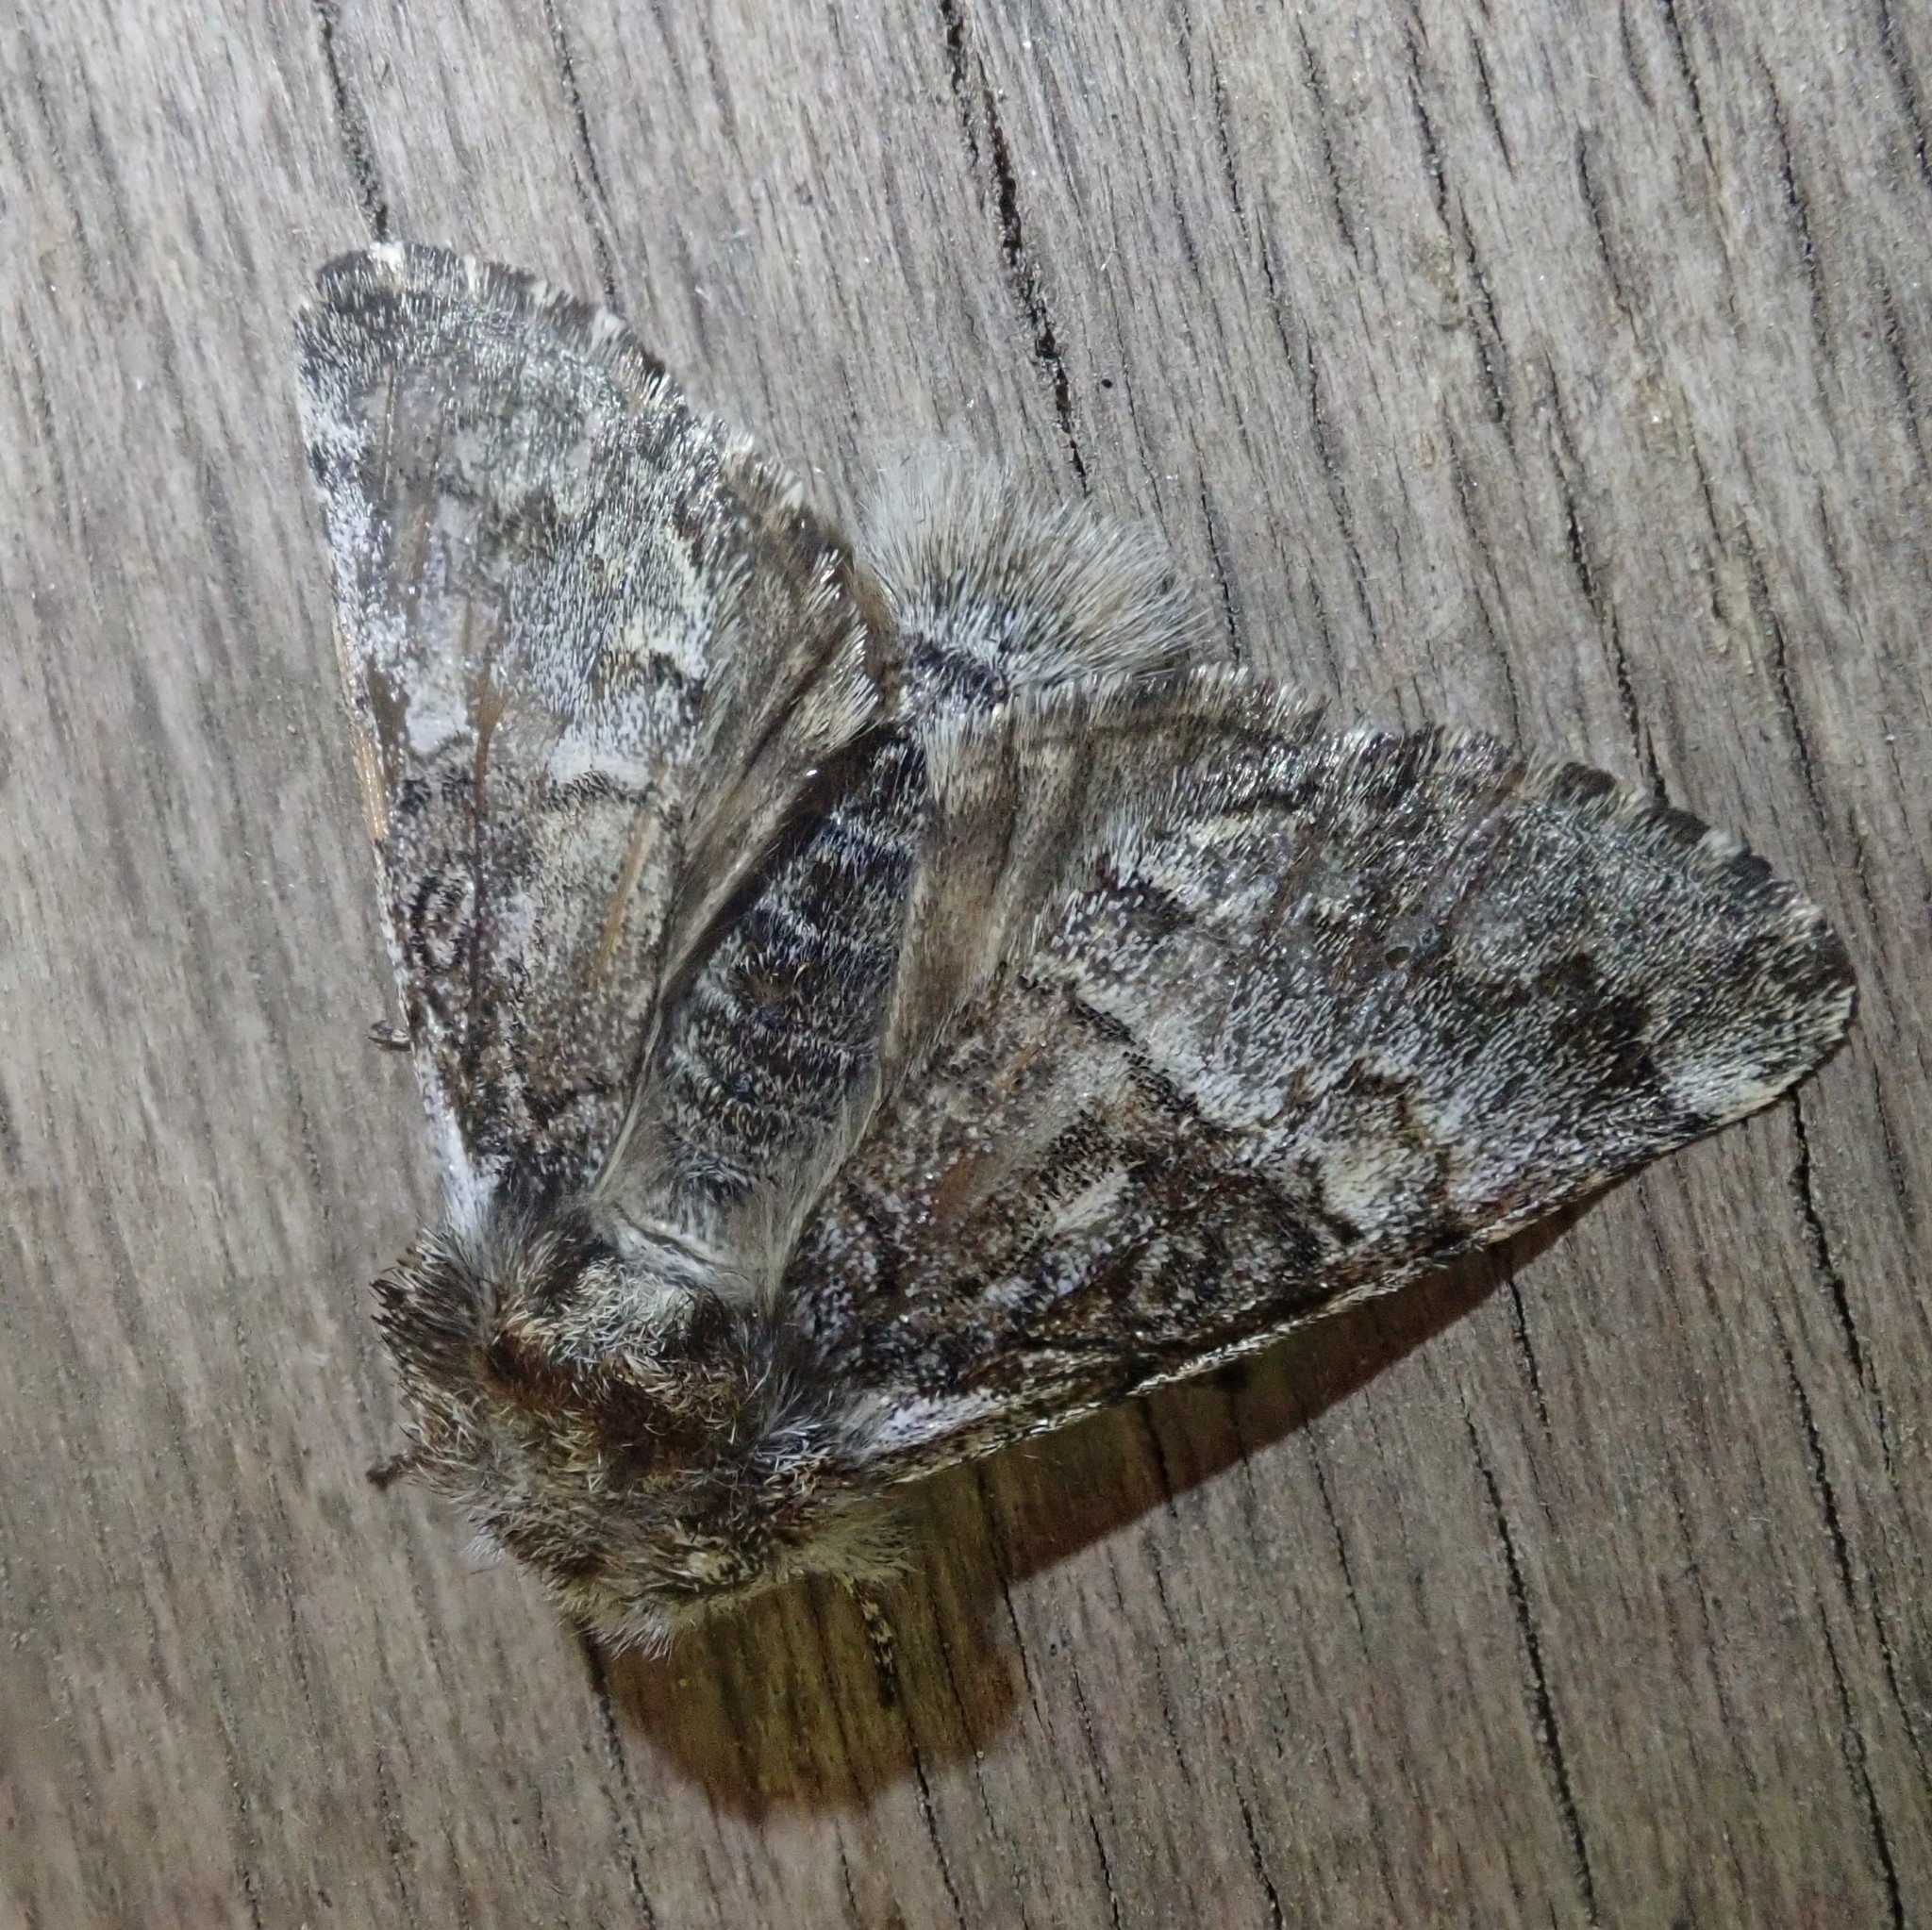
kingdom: Animalia
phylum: Arthropoda
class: Insecta
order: Lepidoptera
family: Noctuidae
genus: Colocasia
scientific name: Colocasia coryli
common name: Nut-tree tussock
